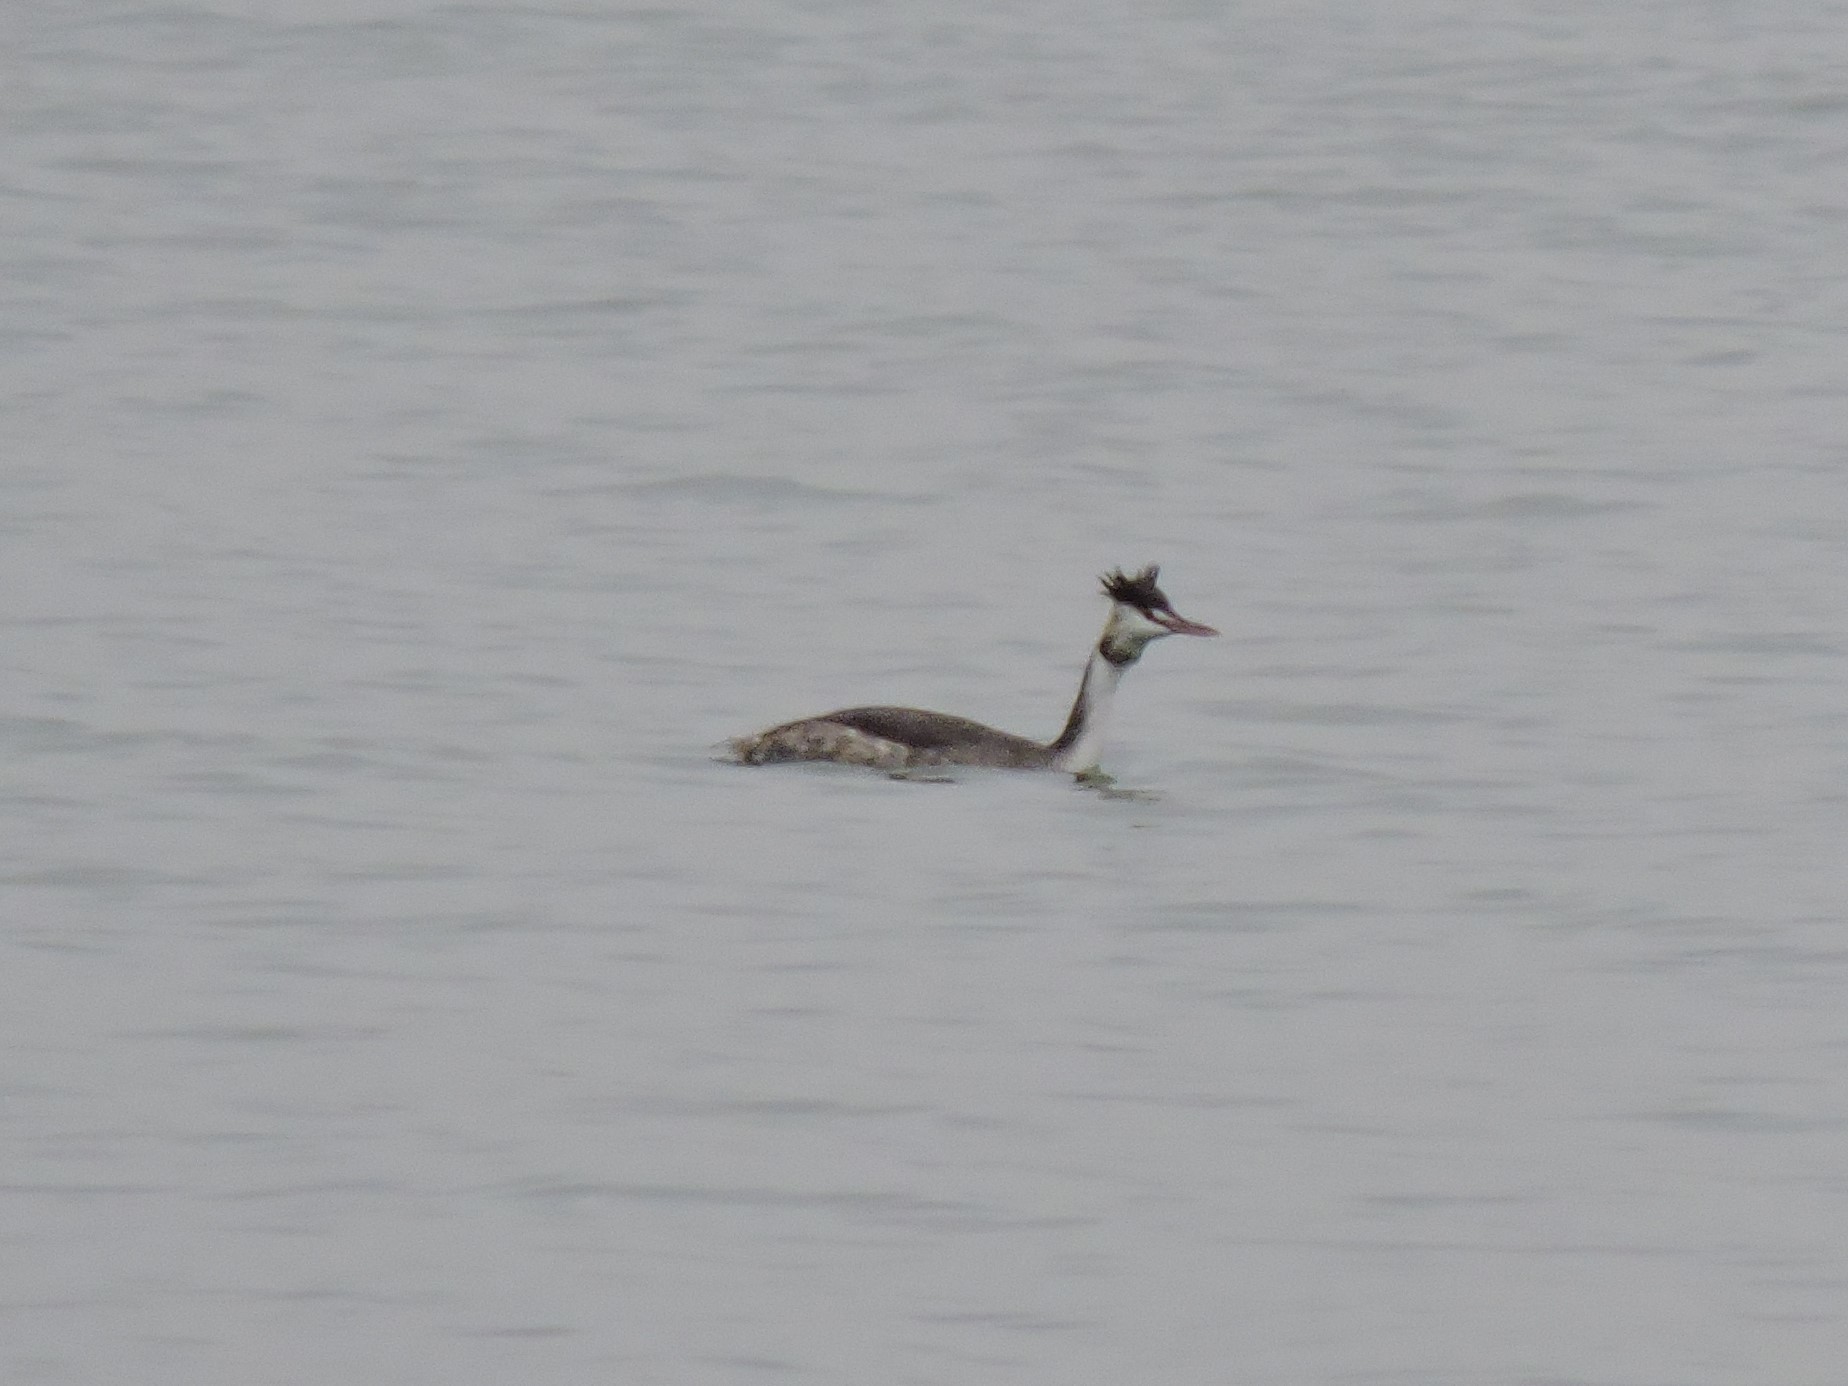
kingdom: Animalia
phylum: Chordata
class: Aves
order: Podicipediformes
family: Podicipedidae
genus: Podiceps
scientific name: Podiceps cristatus
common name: Great crested grebe
